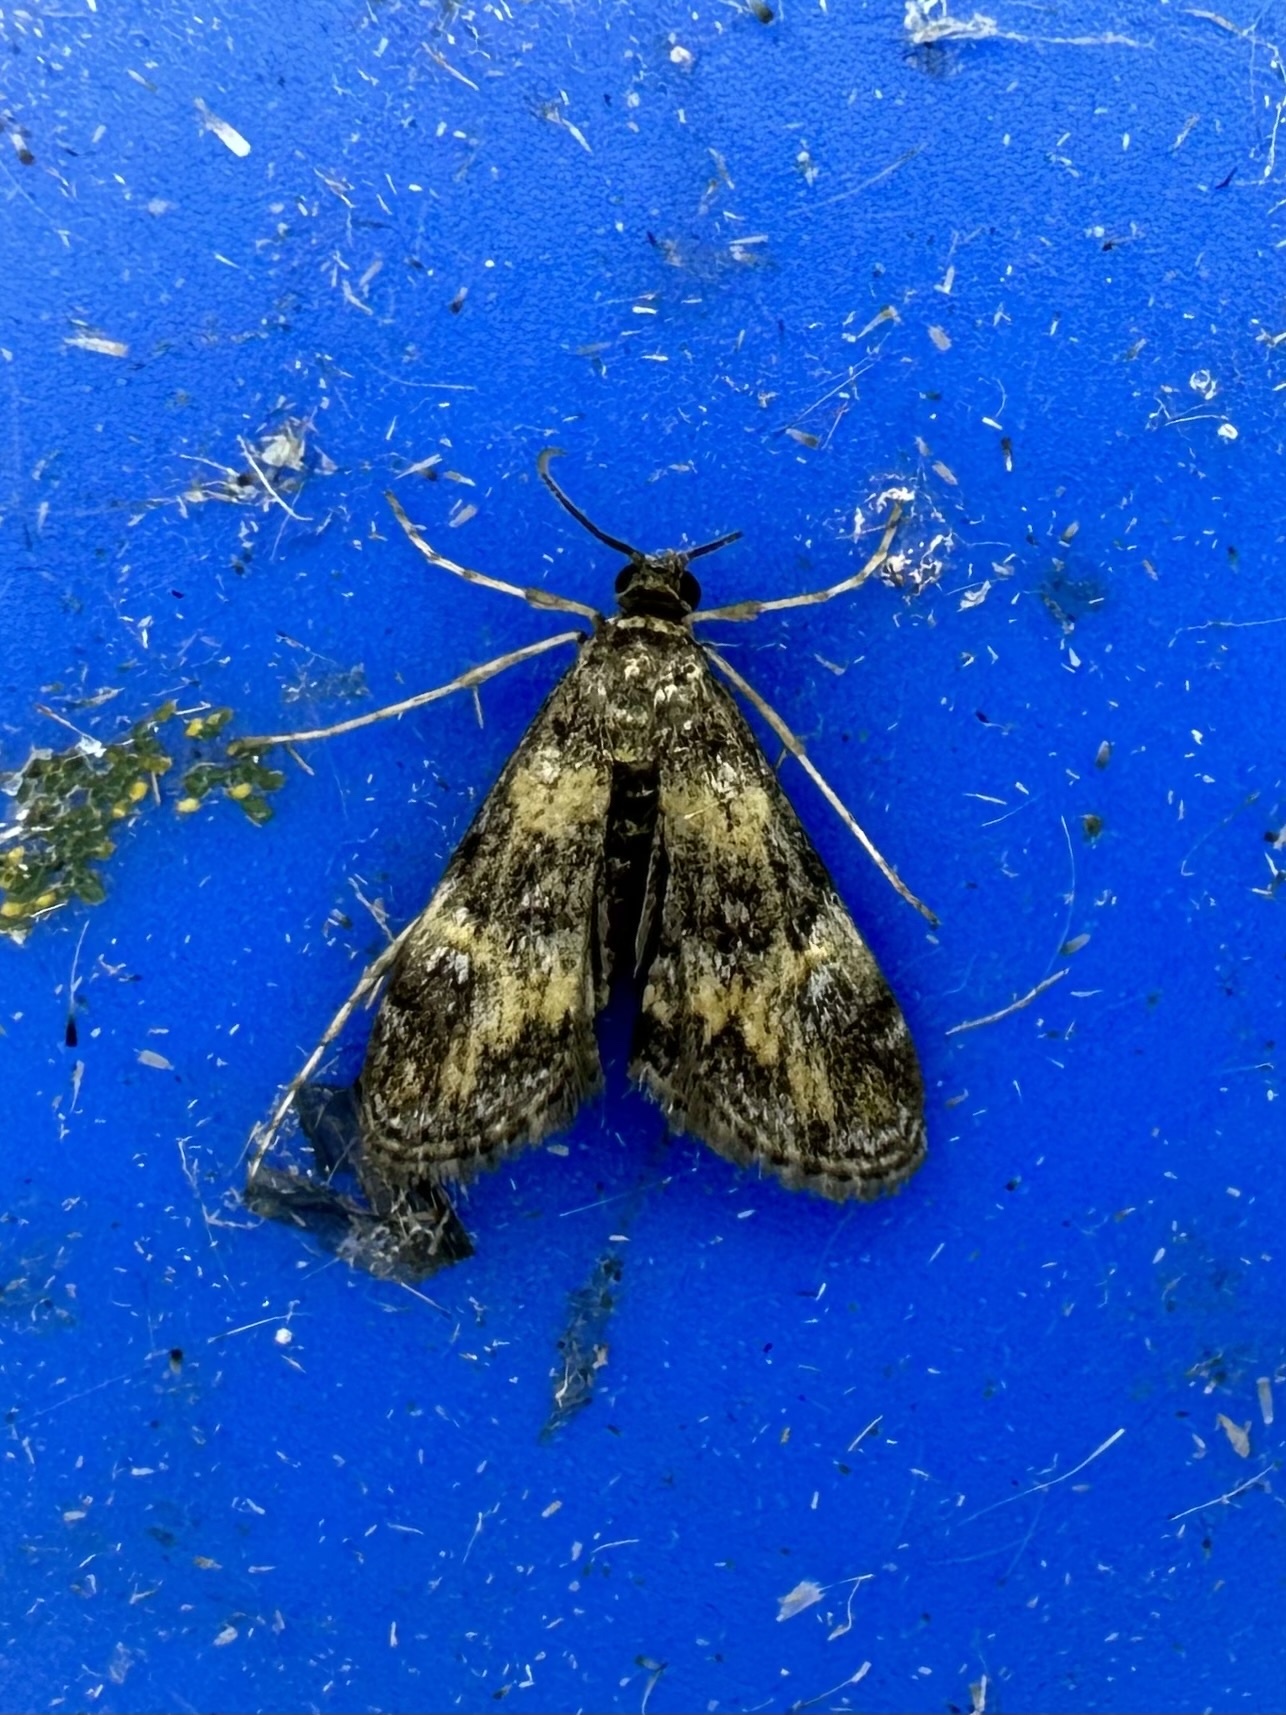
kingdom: Animalia
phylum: Arthropoda
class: Insecta
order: Lepidoptera
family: Crambidae
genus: Elophila
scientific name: Elophila obliteralis
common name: Waterlily leafcutter moth
